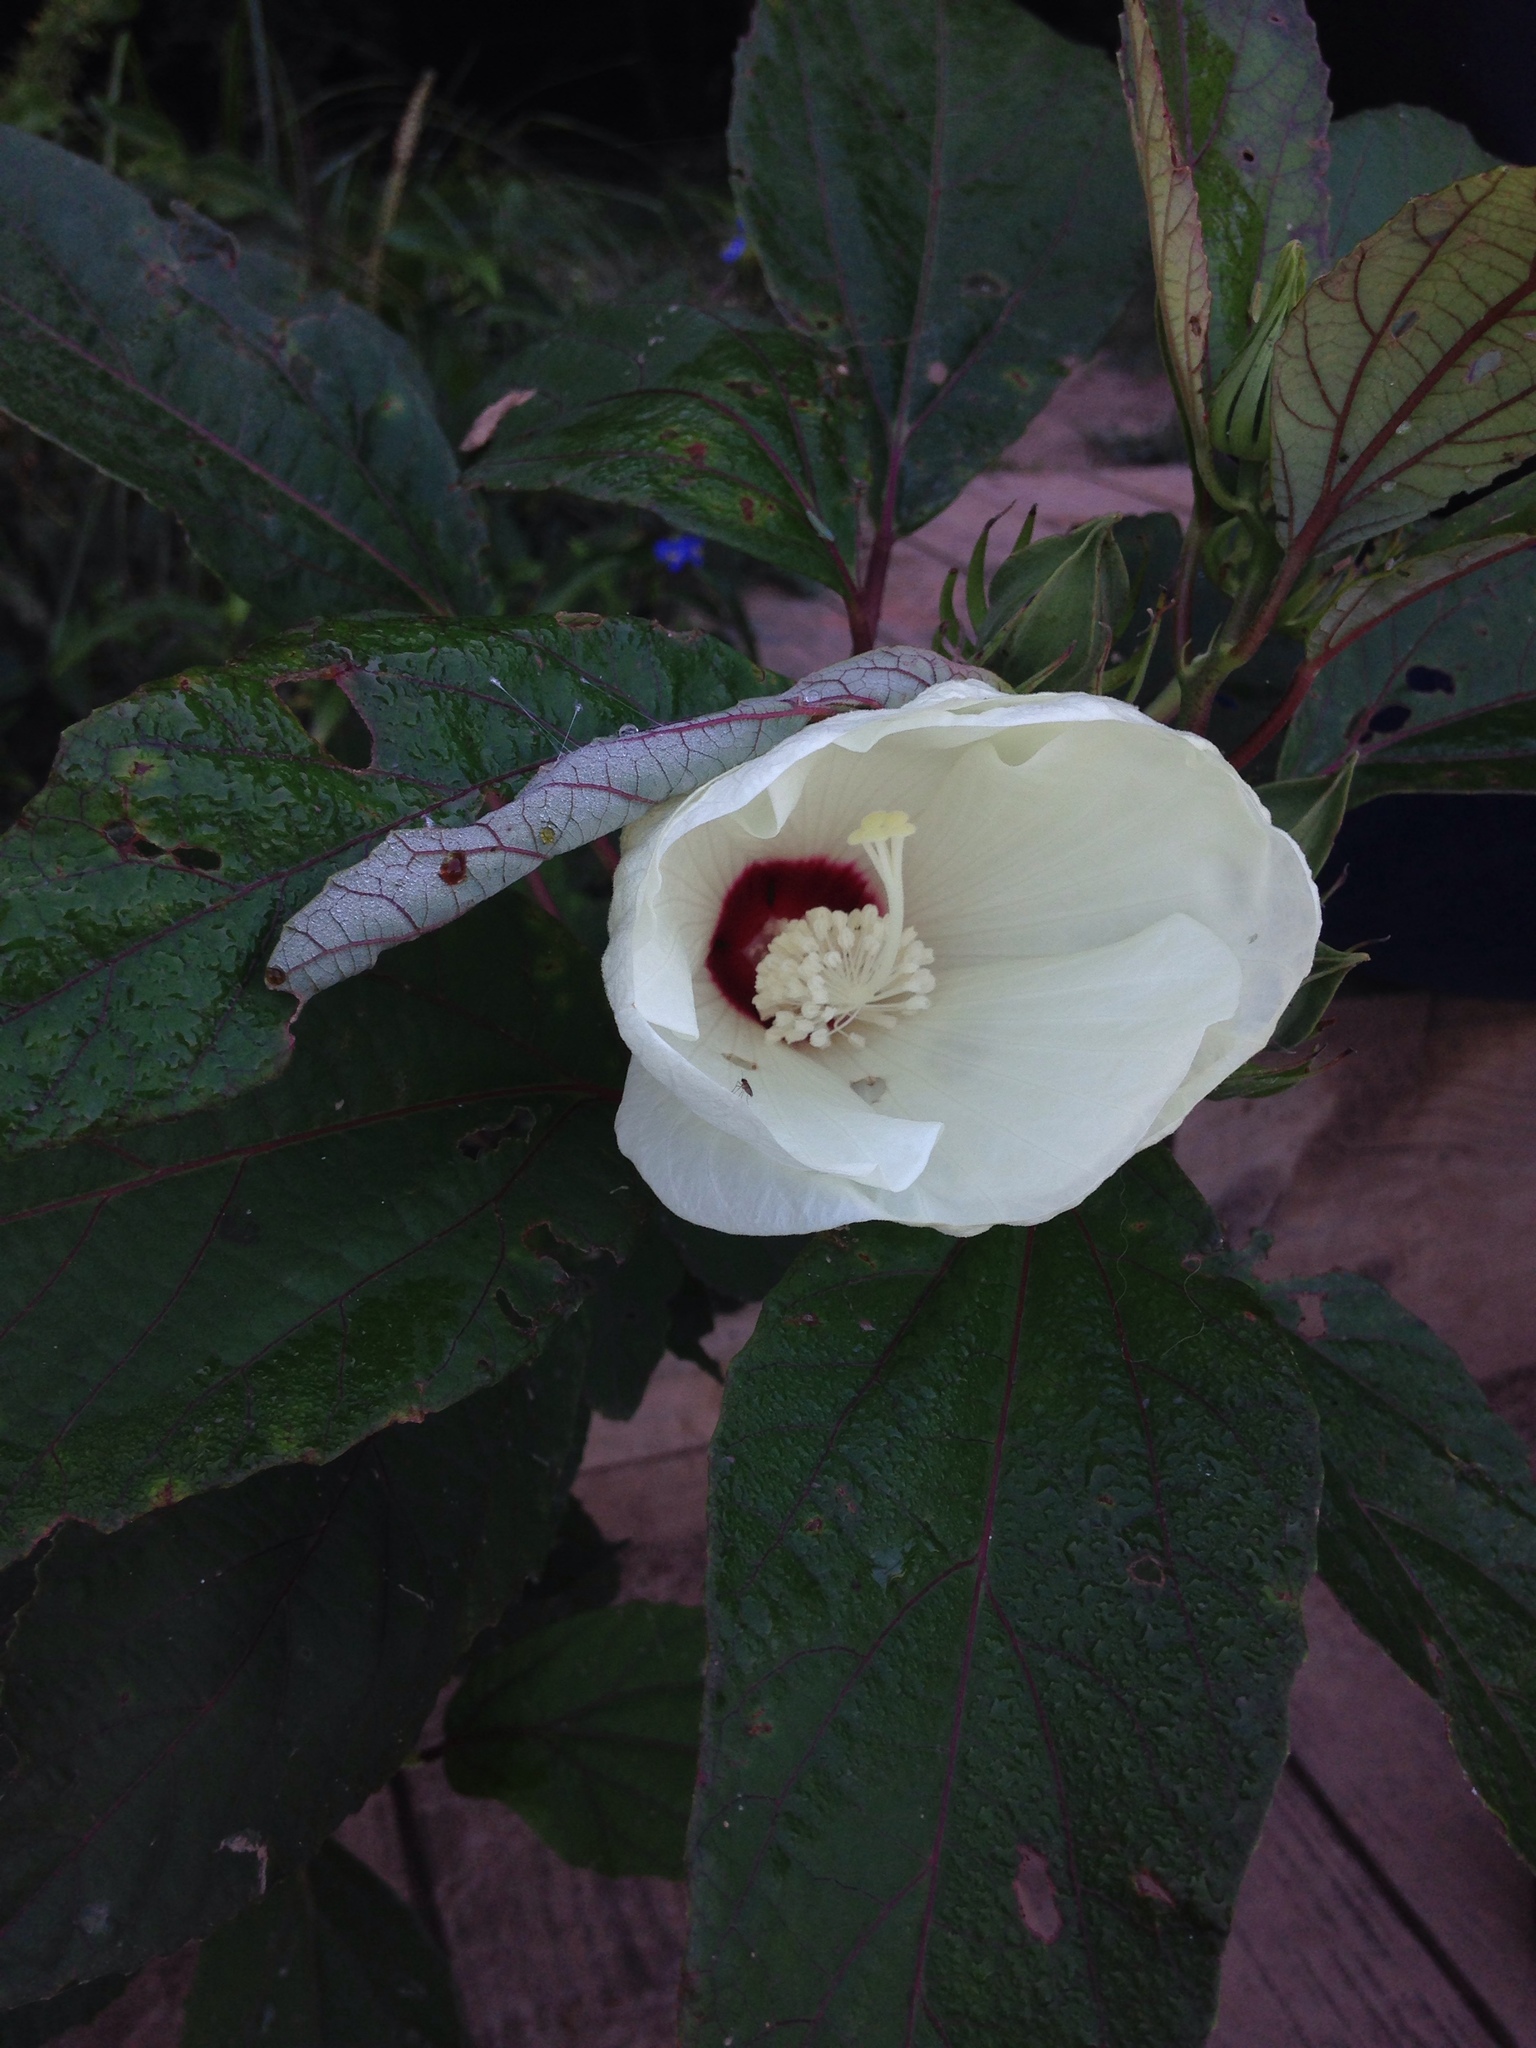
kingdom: Plantae
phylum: Tracheophyta
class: Magnoliopsida
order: Malvales
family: Malvaceae
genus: Hibiscus
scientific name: Hibiscus moscheutos
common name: Common rose-mallow
